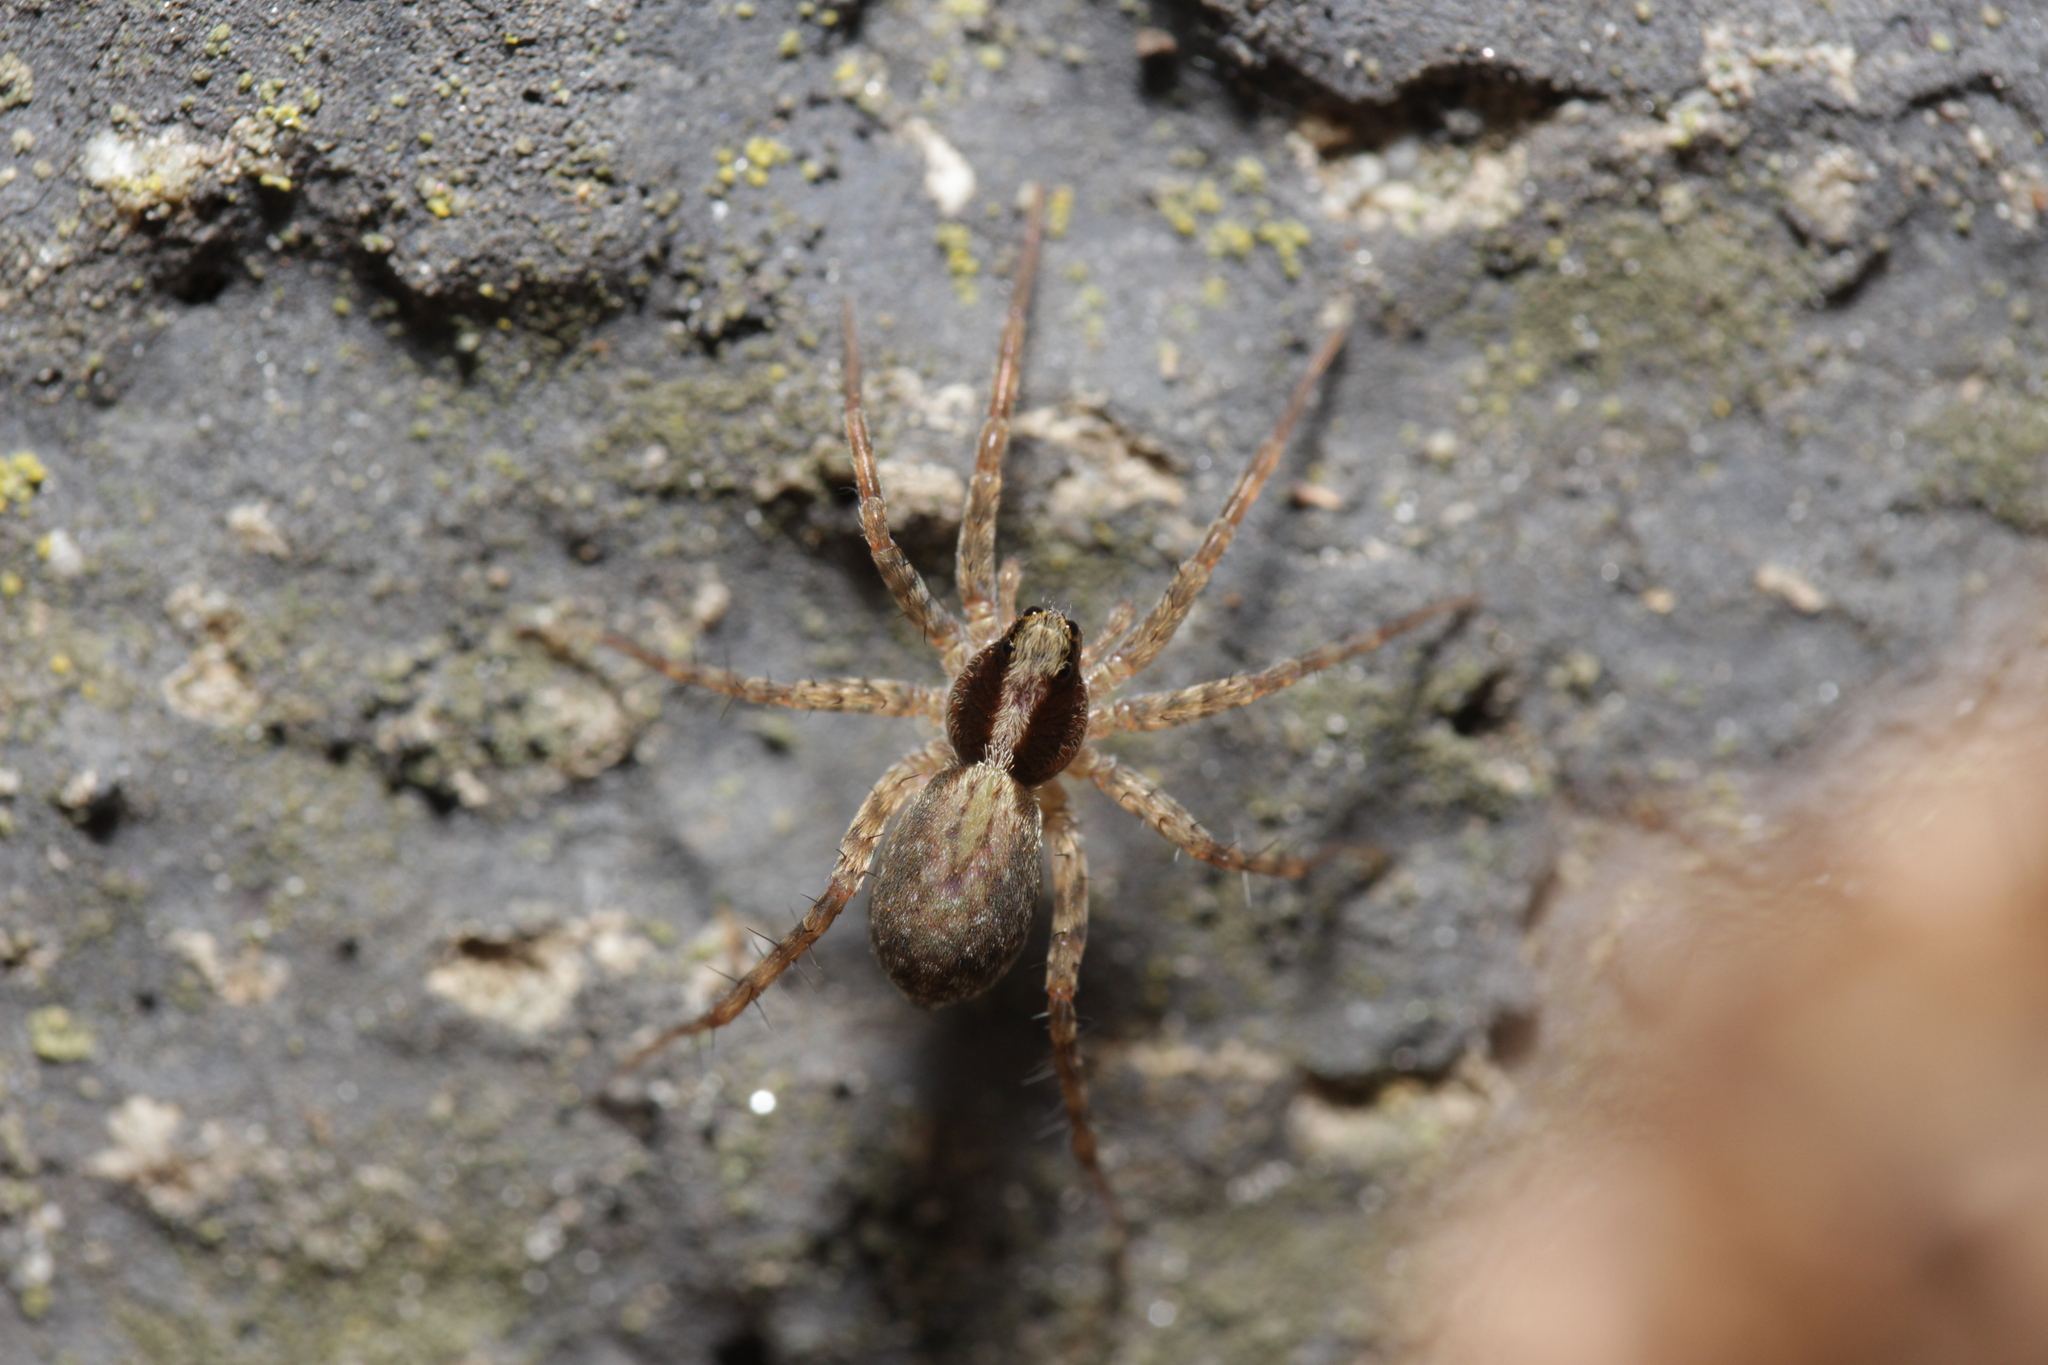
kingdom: Animalia
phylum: Arthropoda
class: Arachnida
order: Araneae
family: Lycosidae
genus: Pardosa
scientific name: Pardosa
